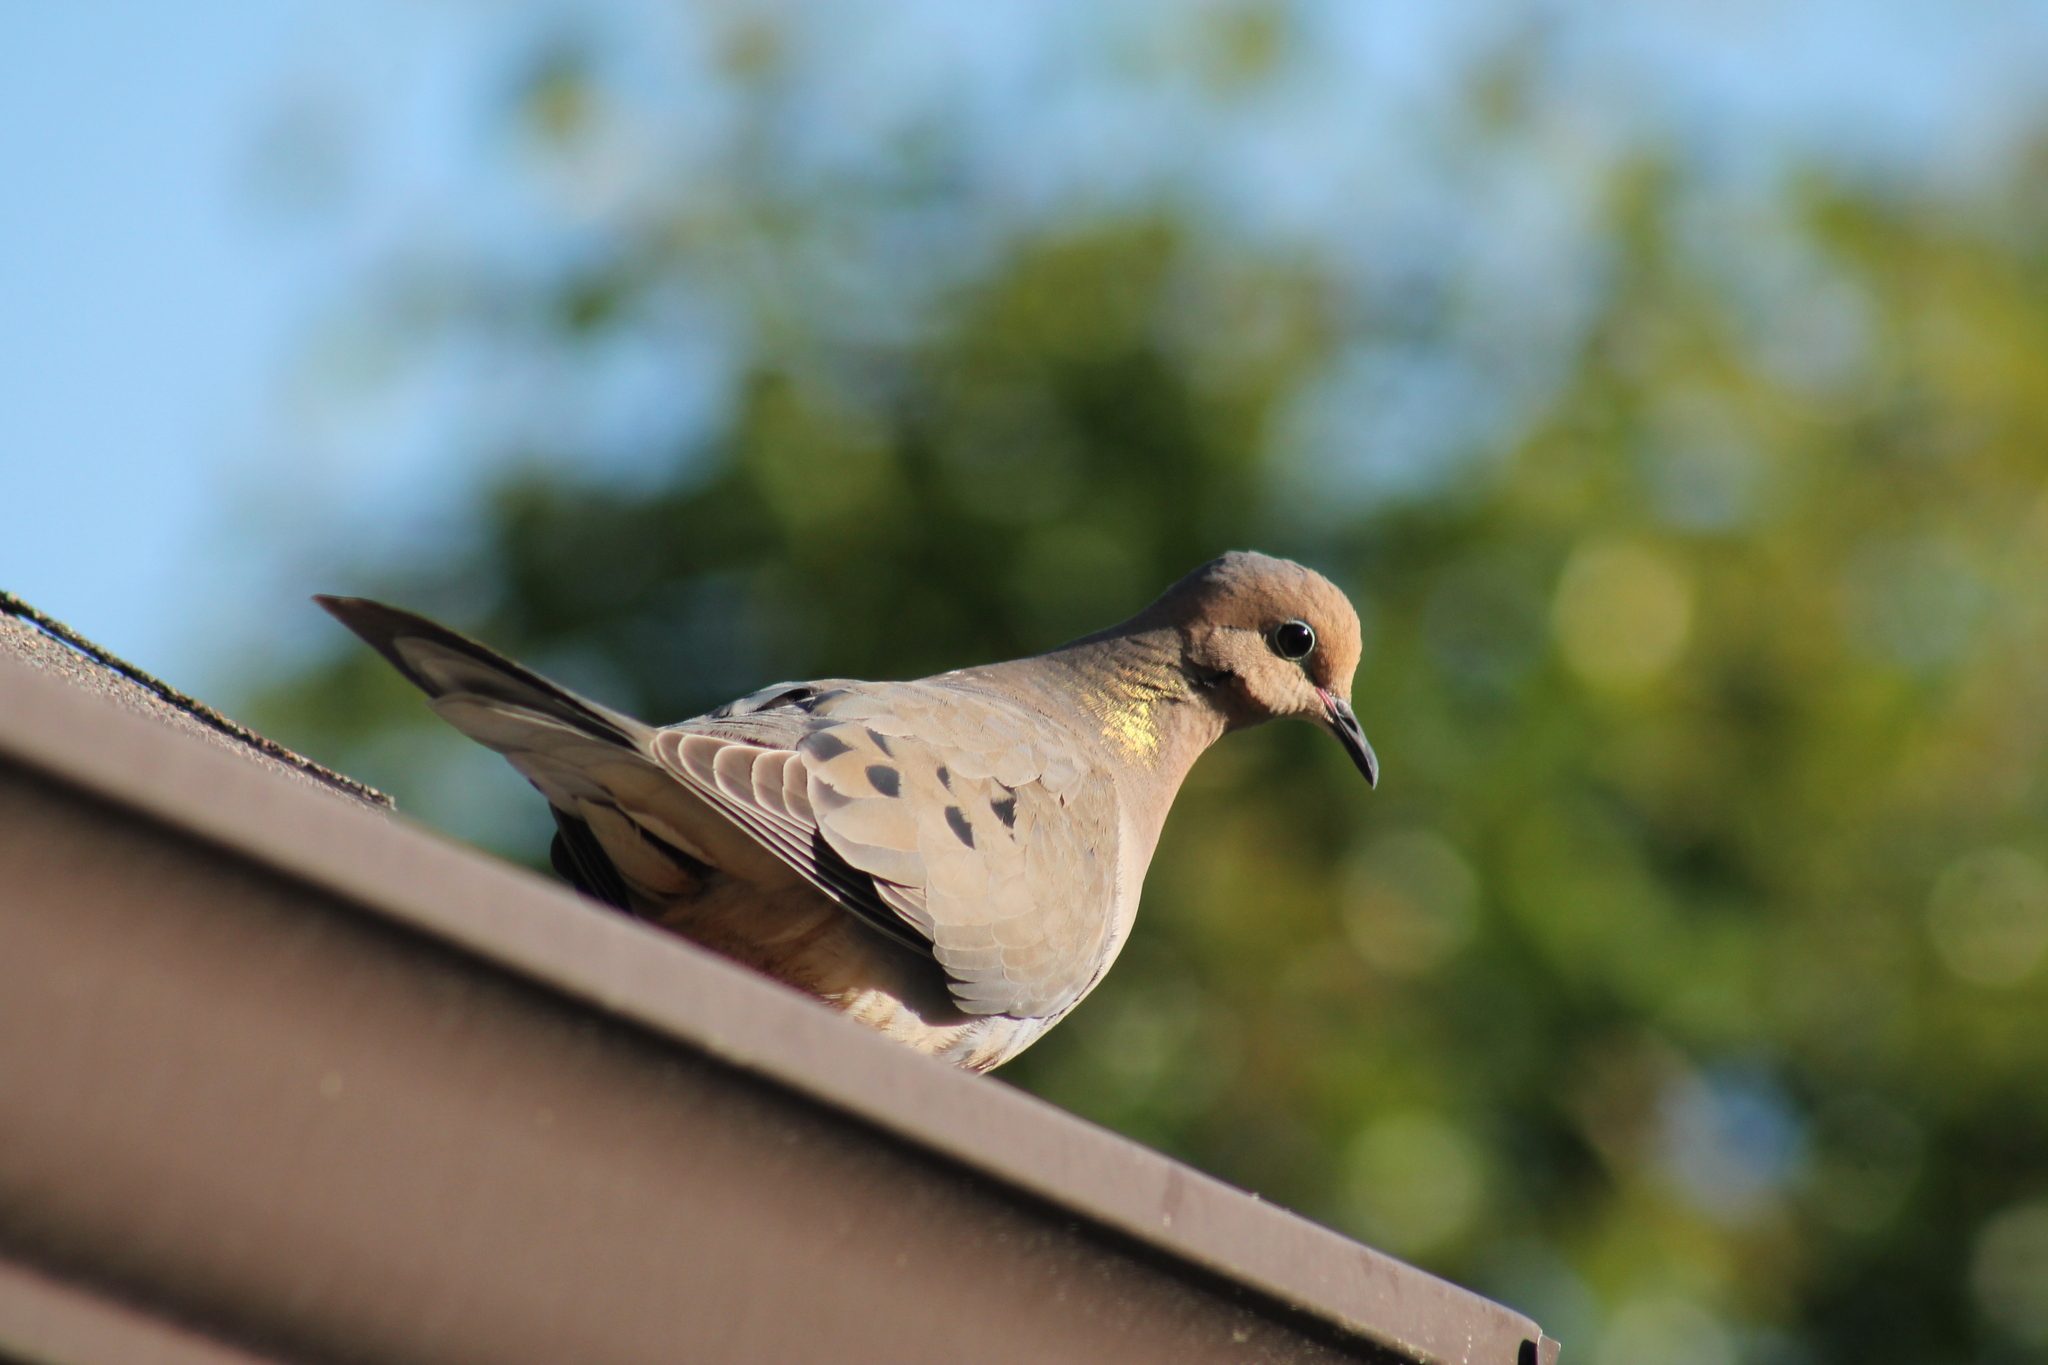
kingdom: Animalia
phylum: Chordata
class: Aves
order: Columbiformes
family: Columbidae
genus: Zenaida
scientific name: Zenaida macroura
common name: Mourning dove
